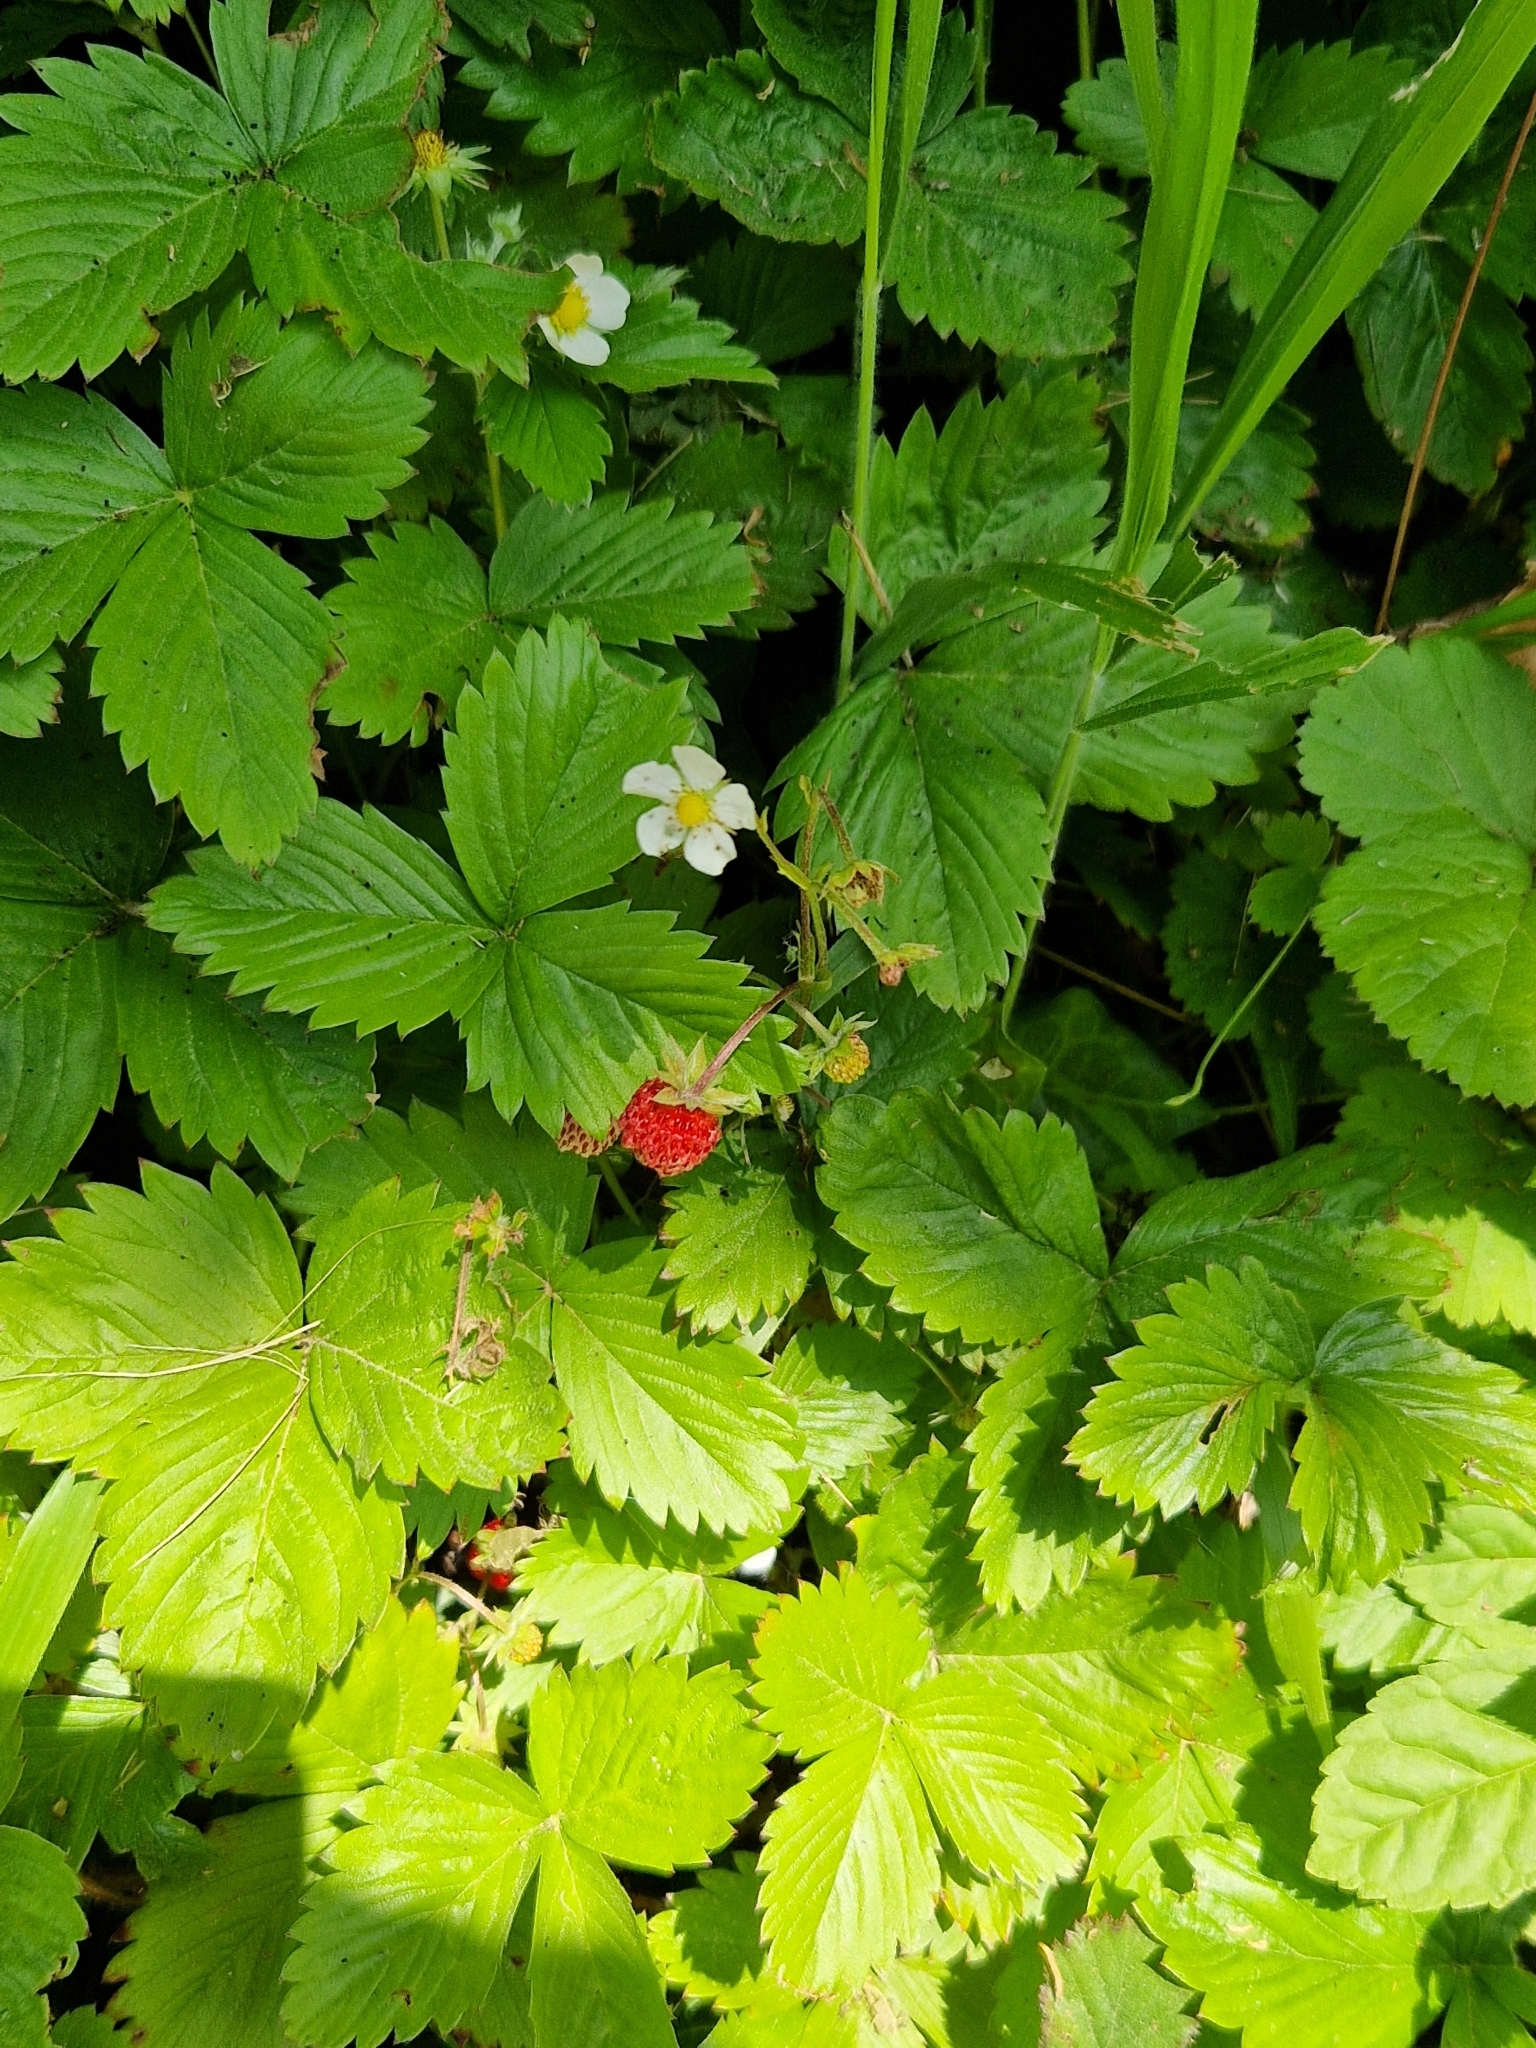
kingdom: Plantae
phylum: Tracheophyta
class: Magnoliopsida
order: Rosales
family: Rosaceae
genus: Fragaria
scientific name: Fragaria vesca
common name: Wild strawberry
